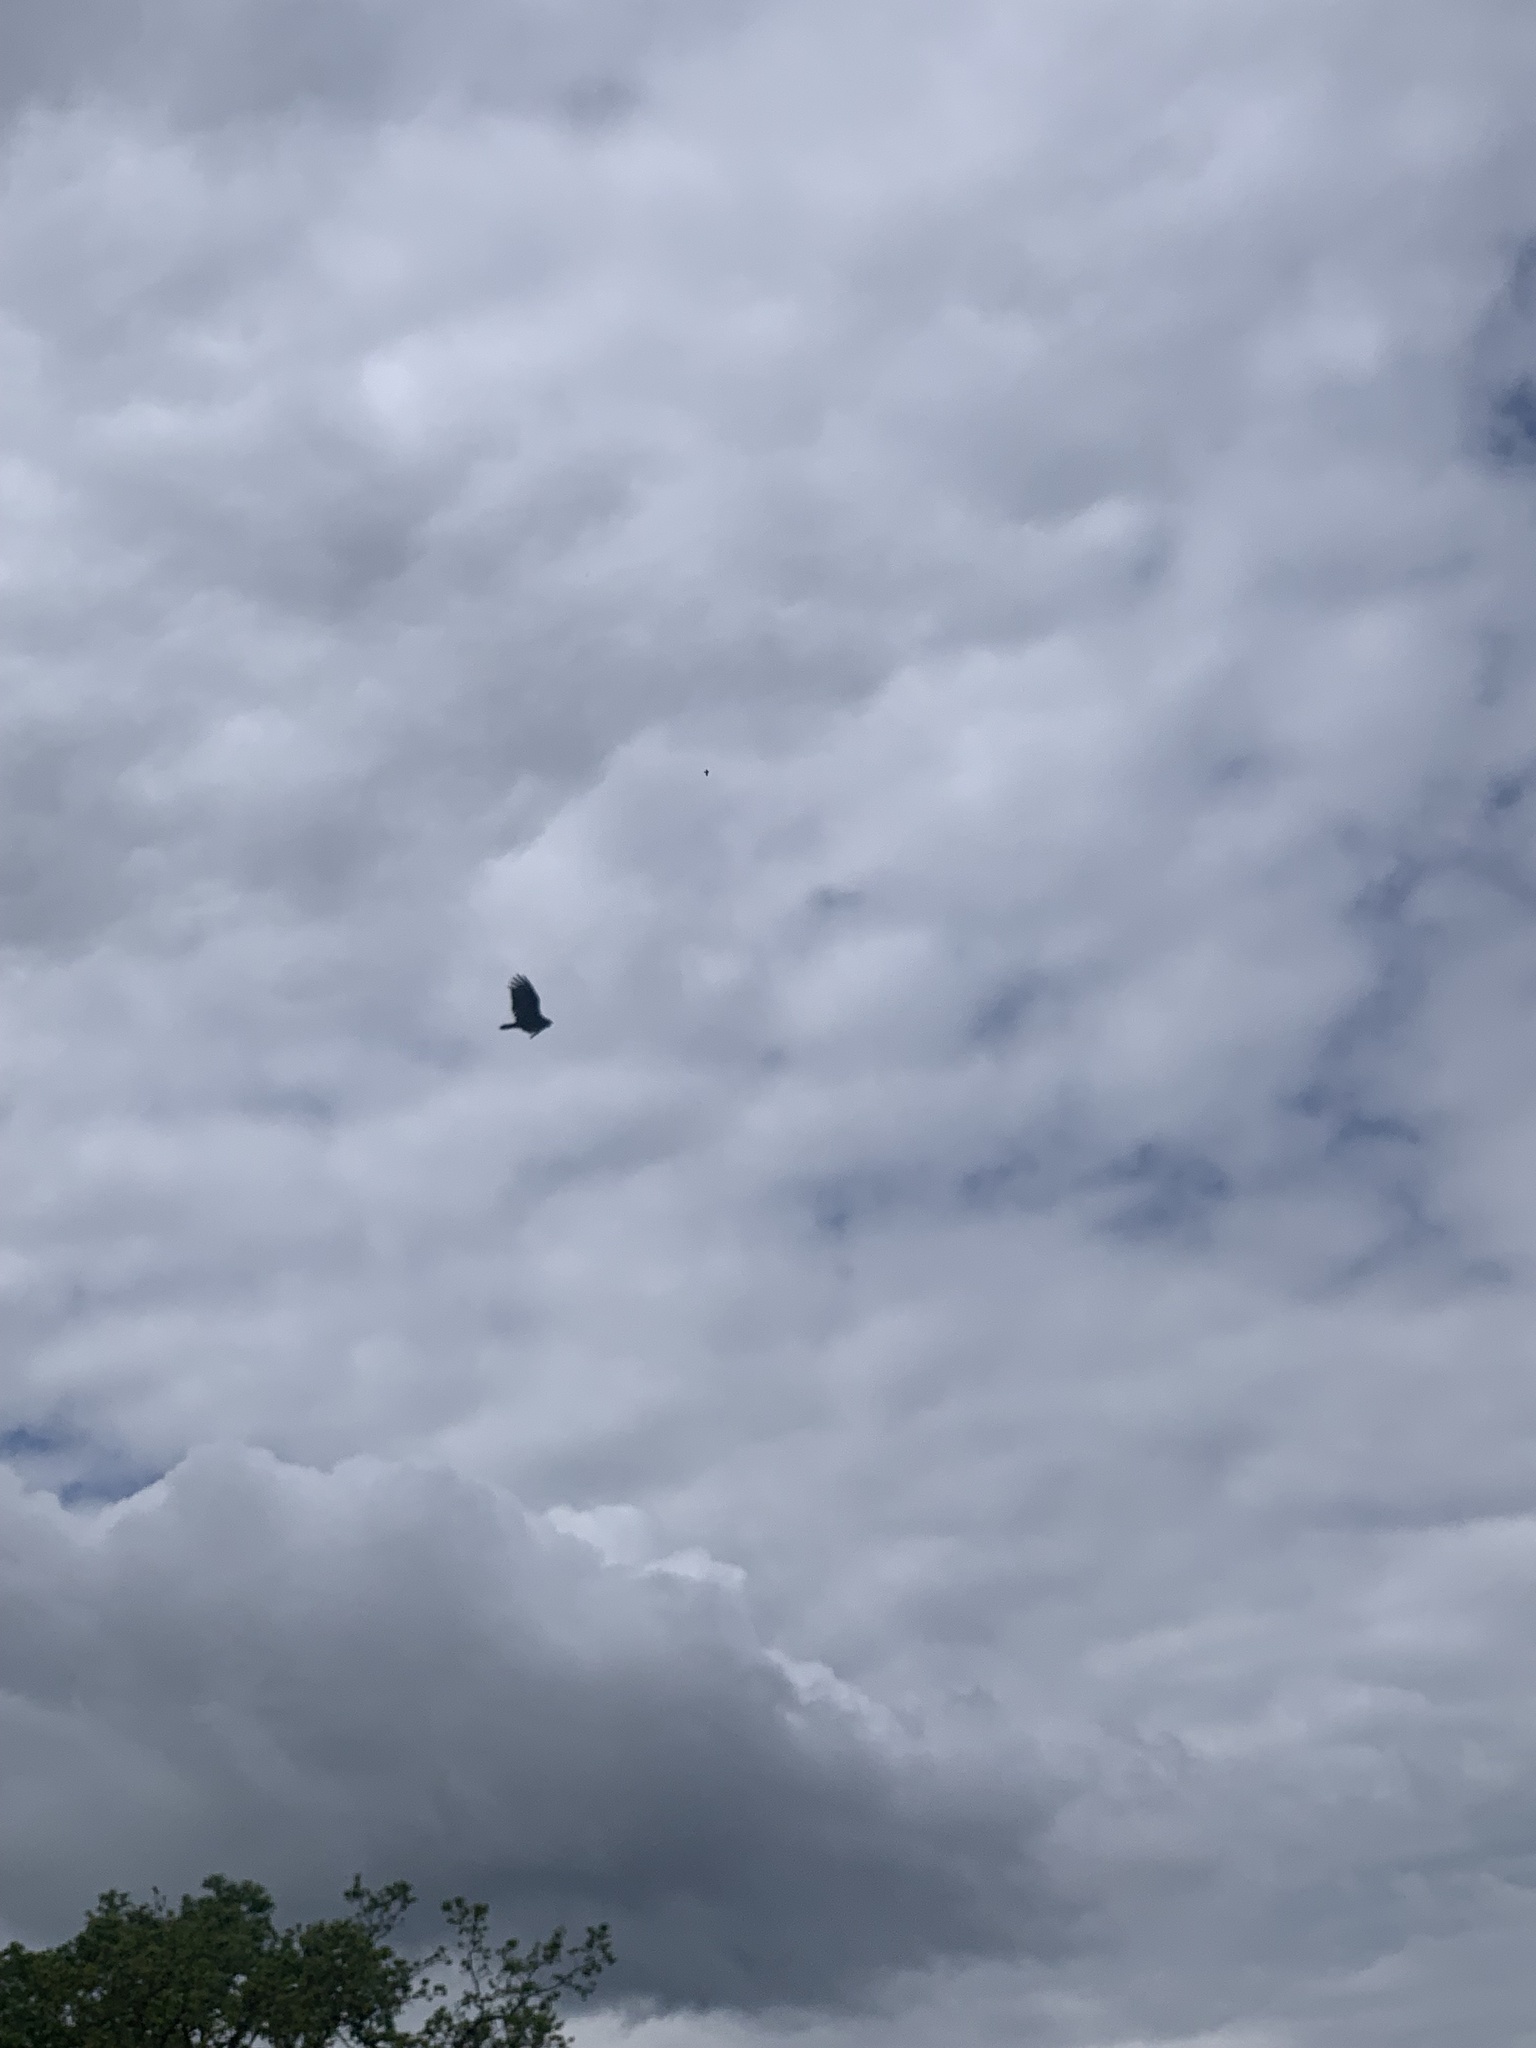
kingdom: Animalia
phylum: Chordata
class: Aves
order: Accipitriformes
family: Cathartidae
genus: Cathartes
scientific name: Cathartes aura
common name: Turkey vulture
